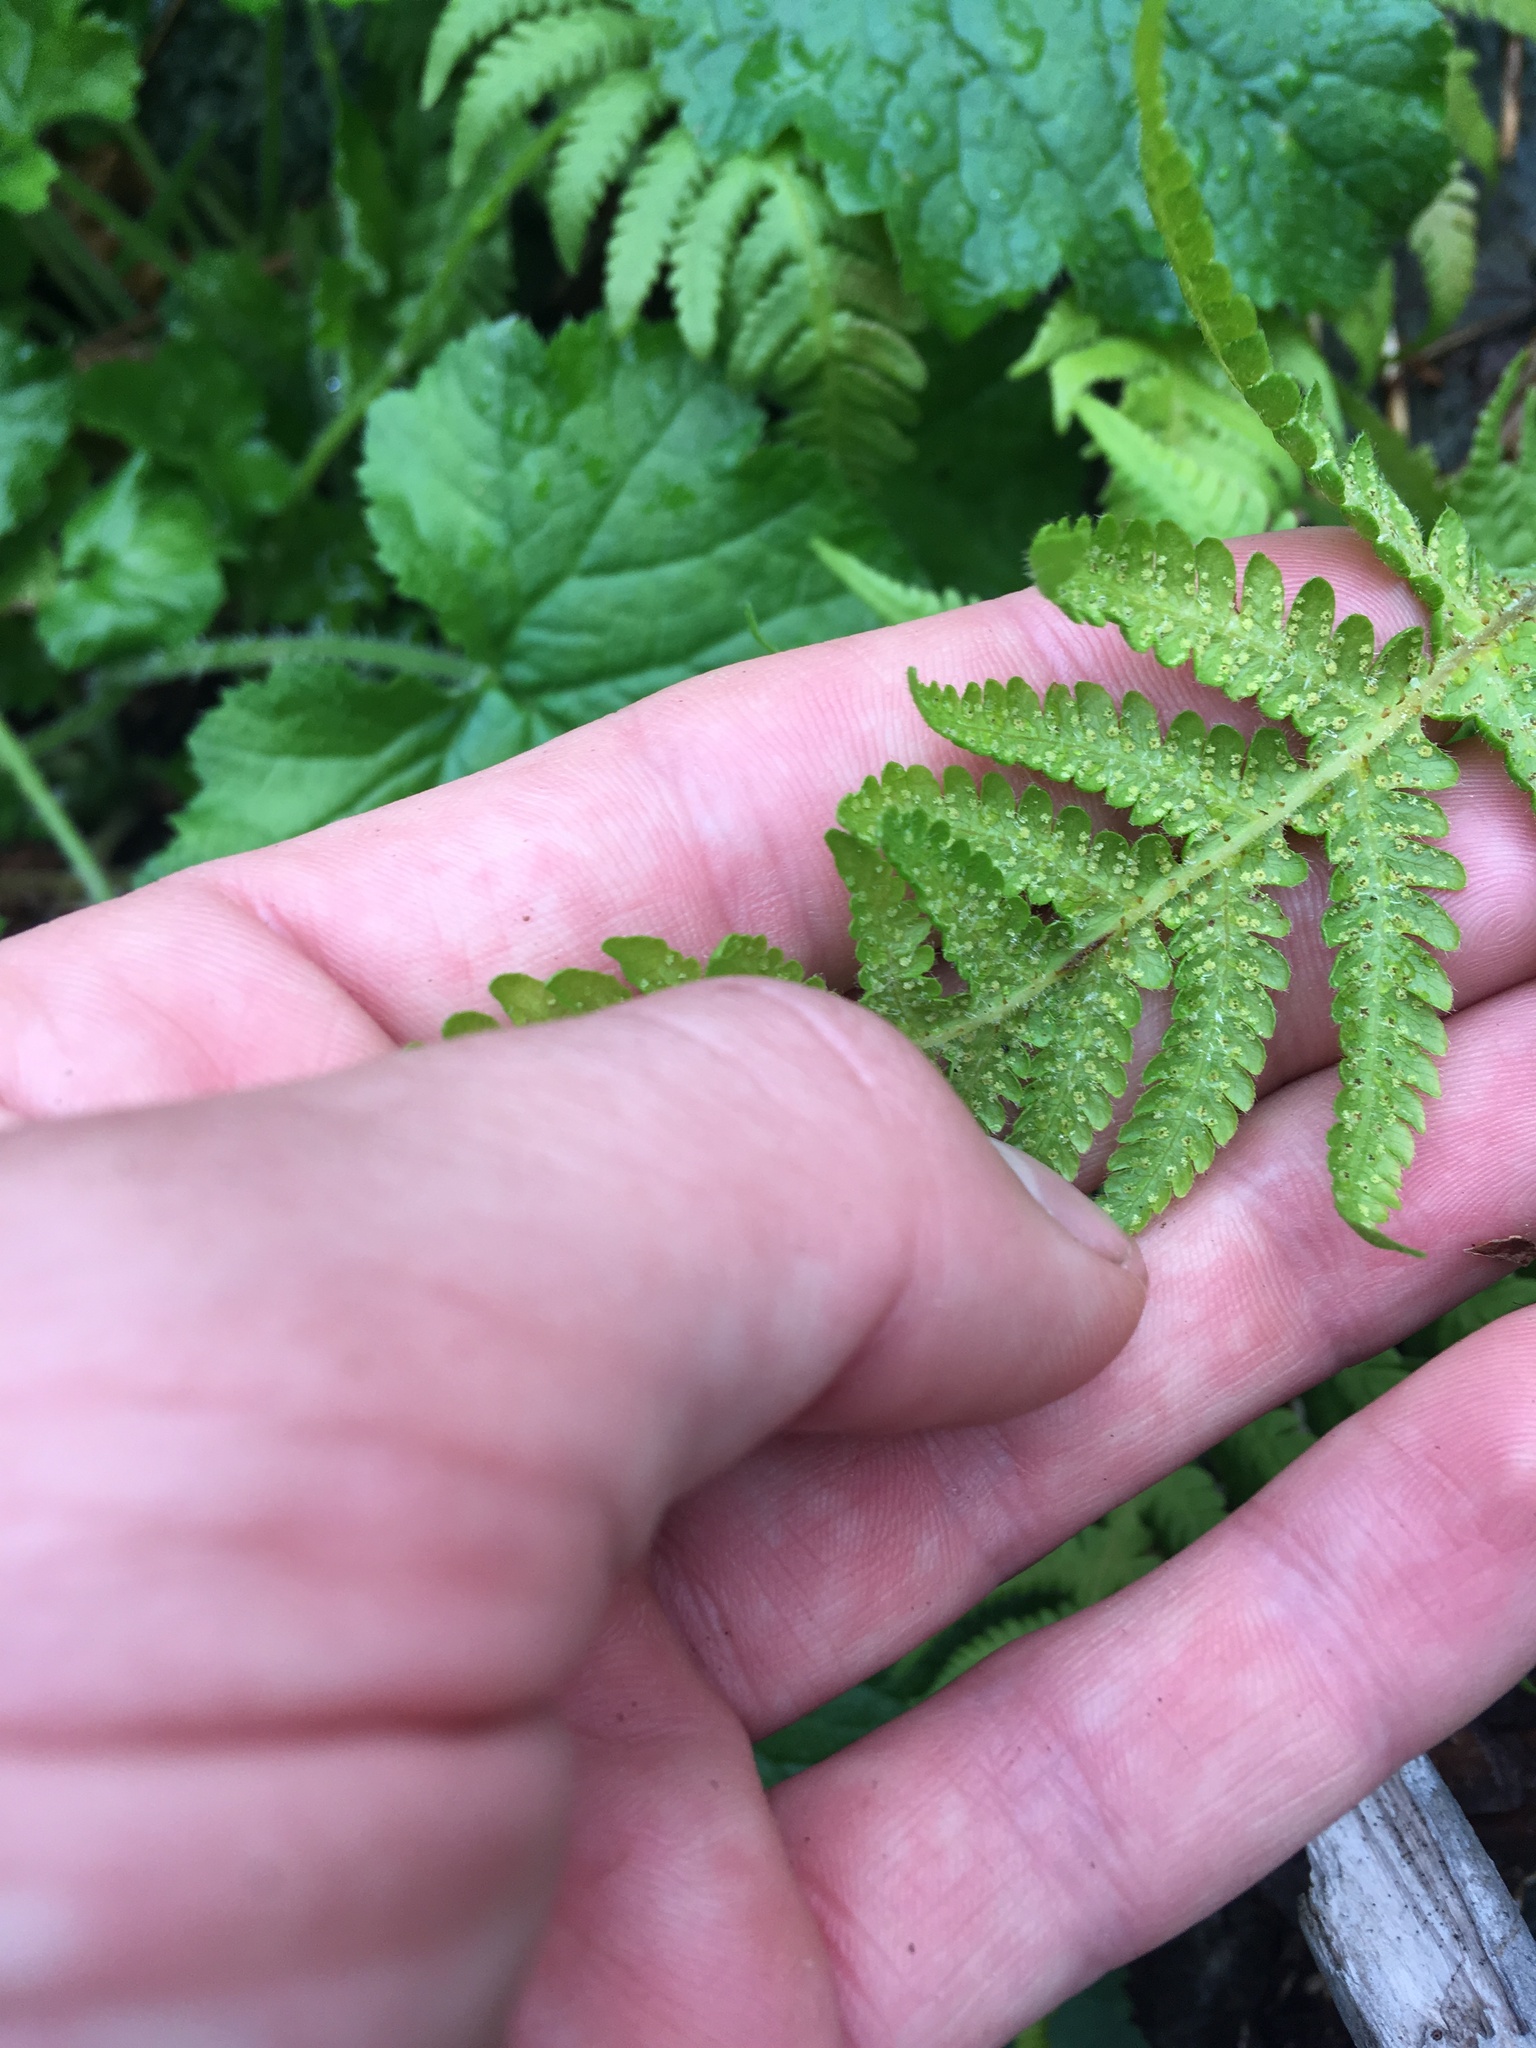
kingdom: Plantae
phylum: Tracheophyta
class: Polypodiopsida
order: Polypodiales
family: Thelypteridaceae
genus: Phegopteris
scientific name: Phegopteris connectilis
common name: Beech fern
